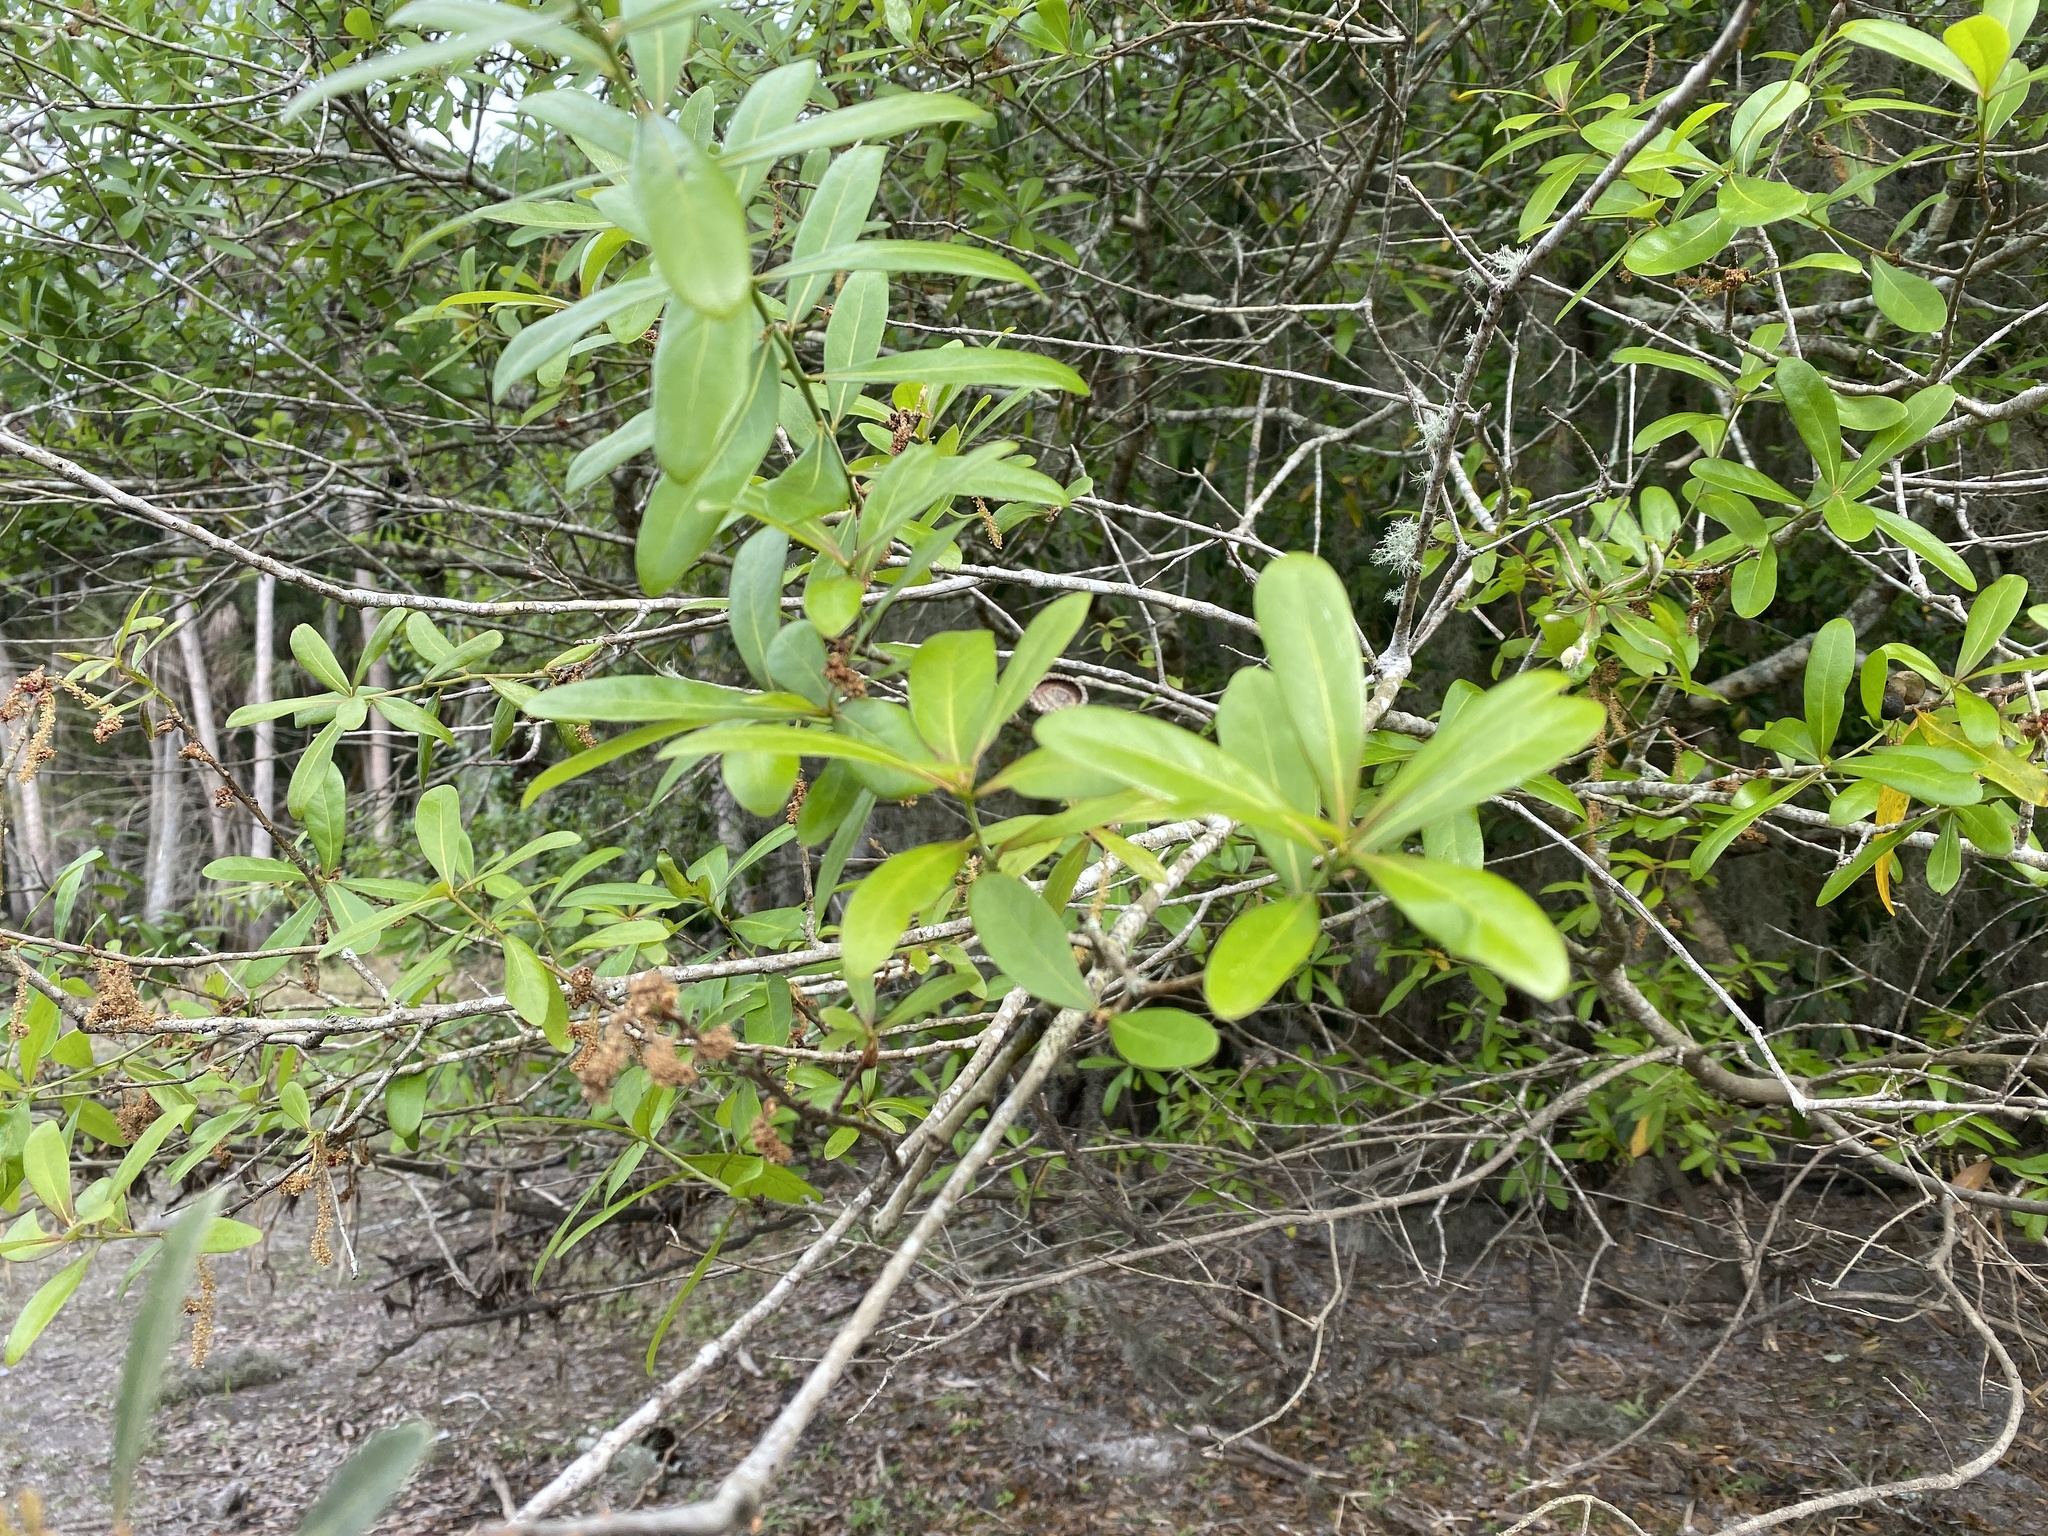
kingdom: Plantae
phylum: Tracheophyta
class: Magnoliopsida
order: Fagales
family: Fagaceae
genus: Quercus
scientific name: Quercus laurifolia
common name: Swamp laurel oak
